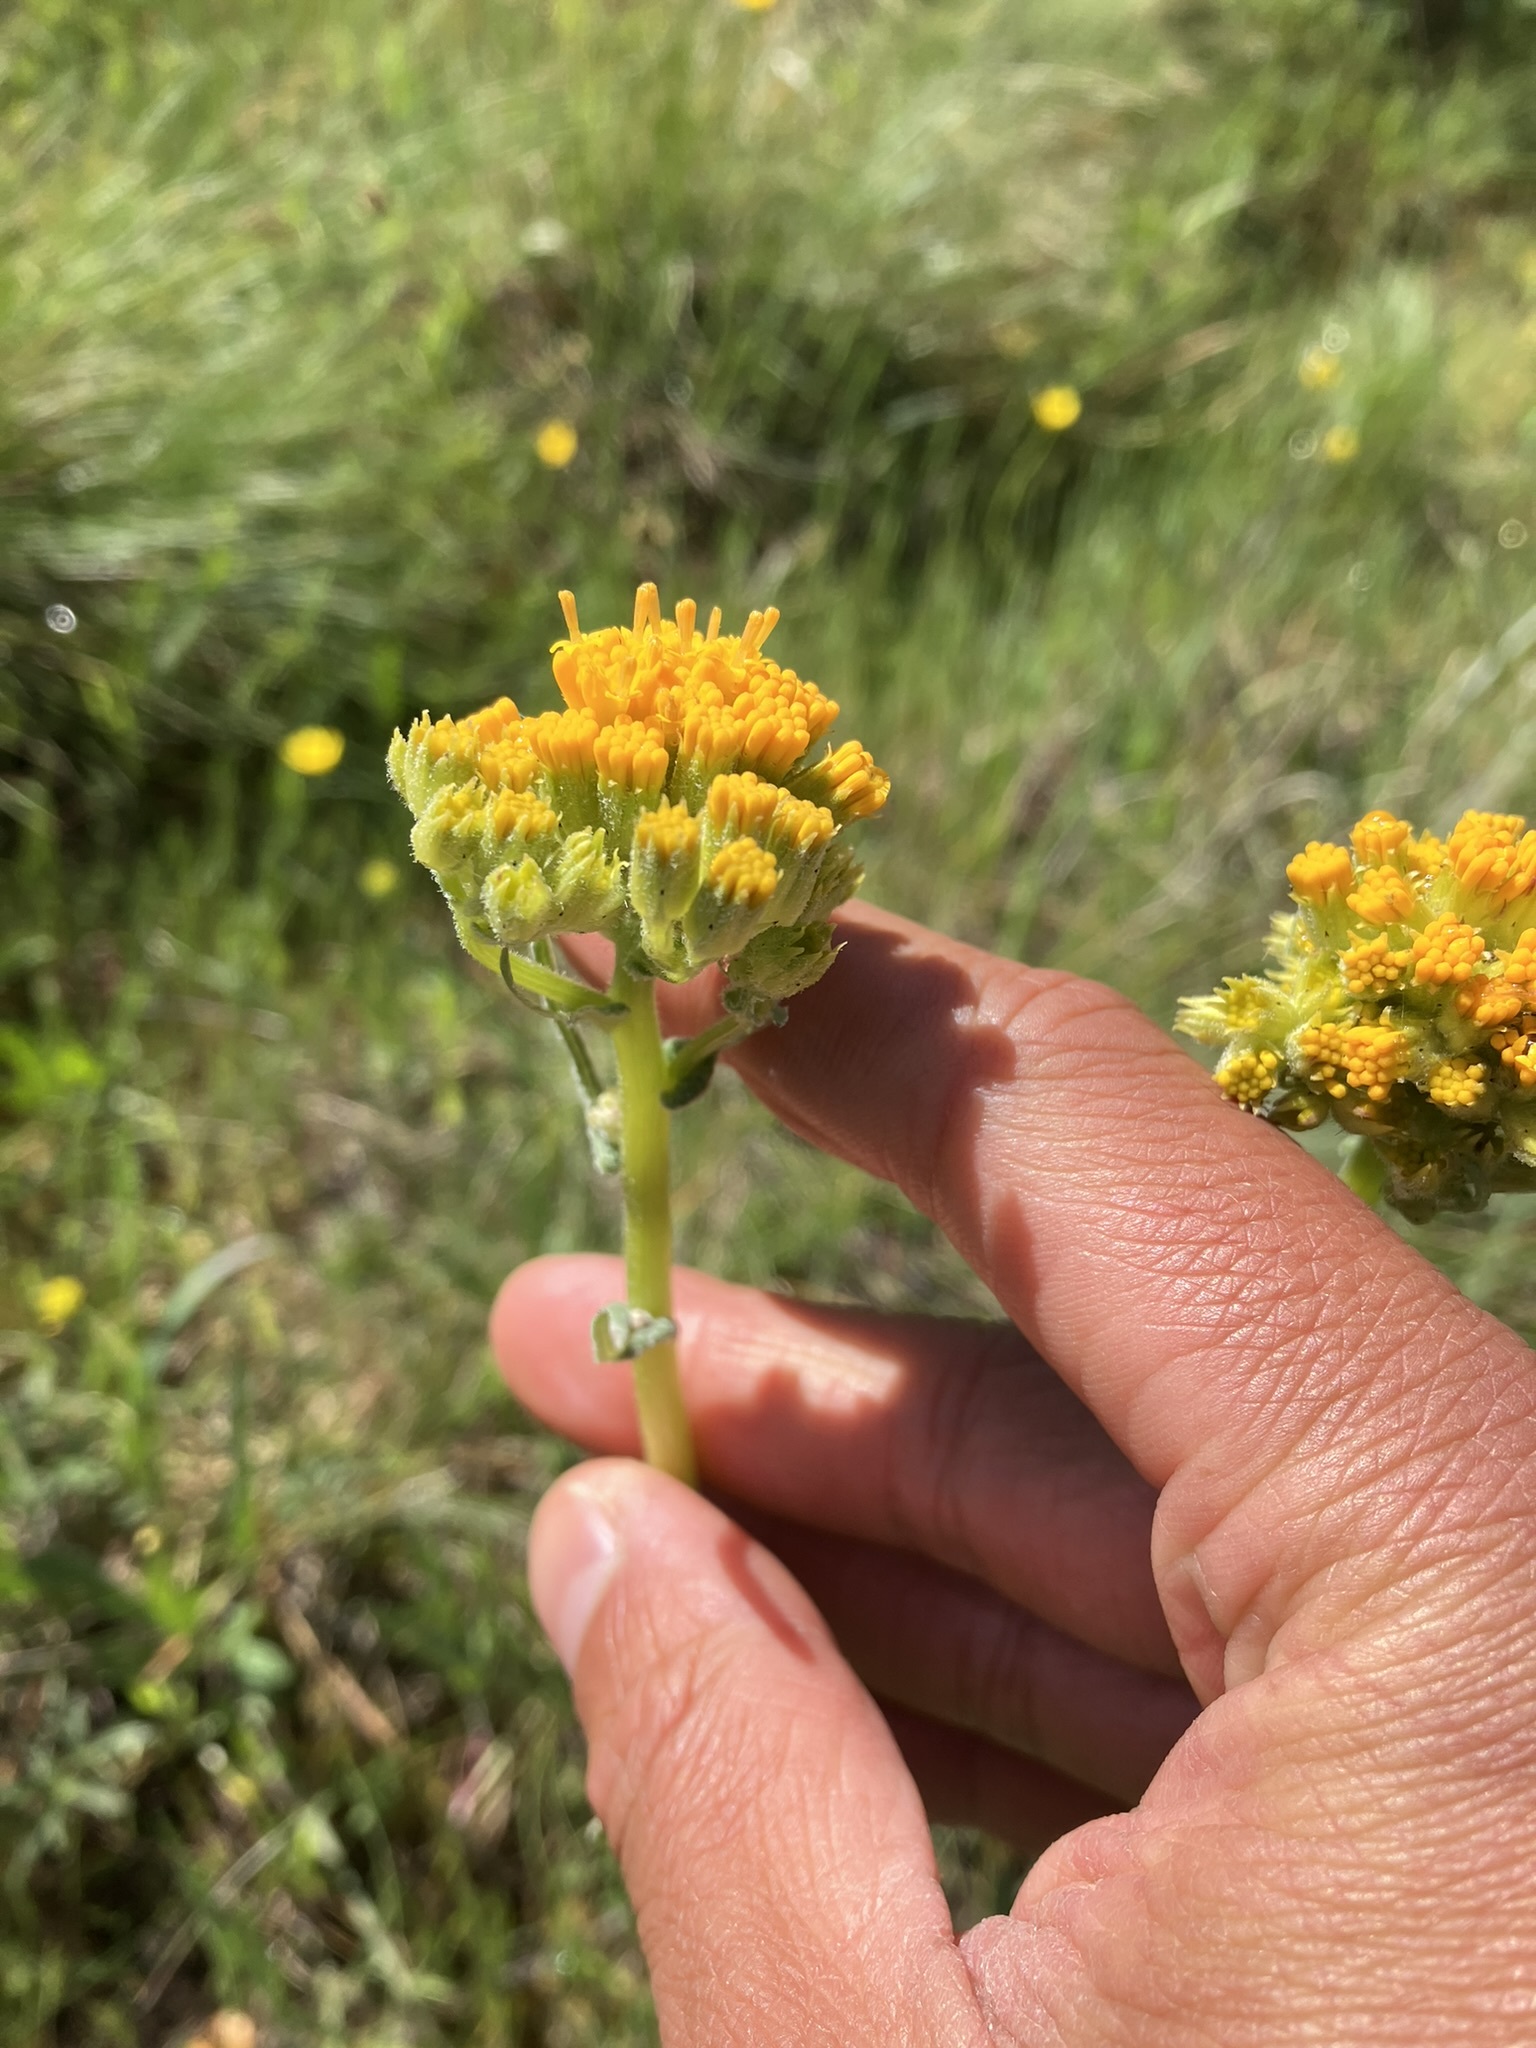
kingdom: Plantae
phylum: Tracheophyta
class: Magnoliopsida
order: Asterales
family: Asteraceae
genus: Senecio
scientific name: Senecio aronicoides
